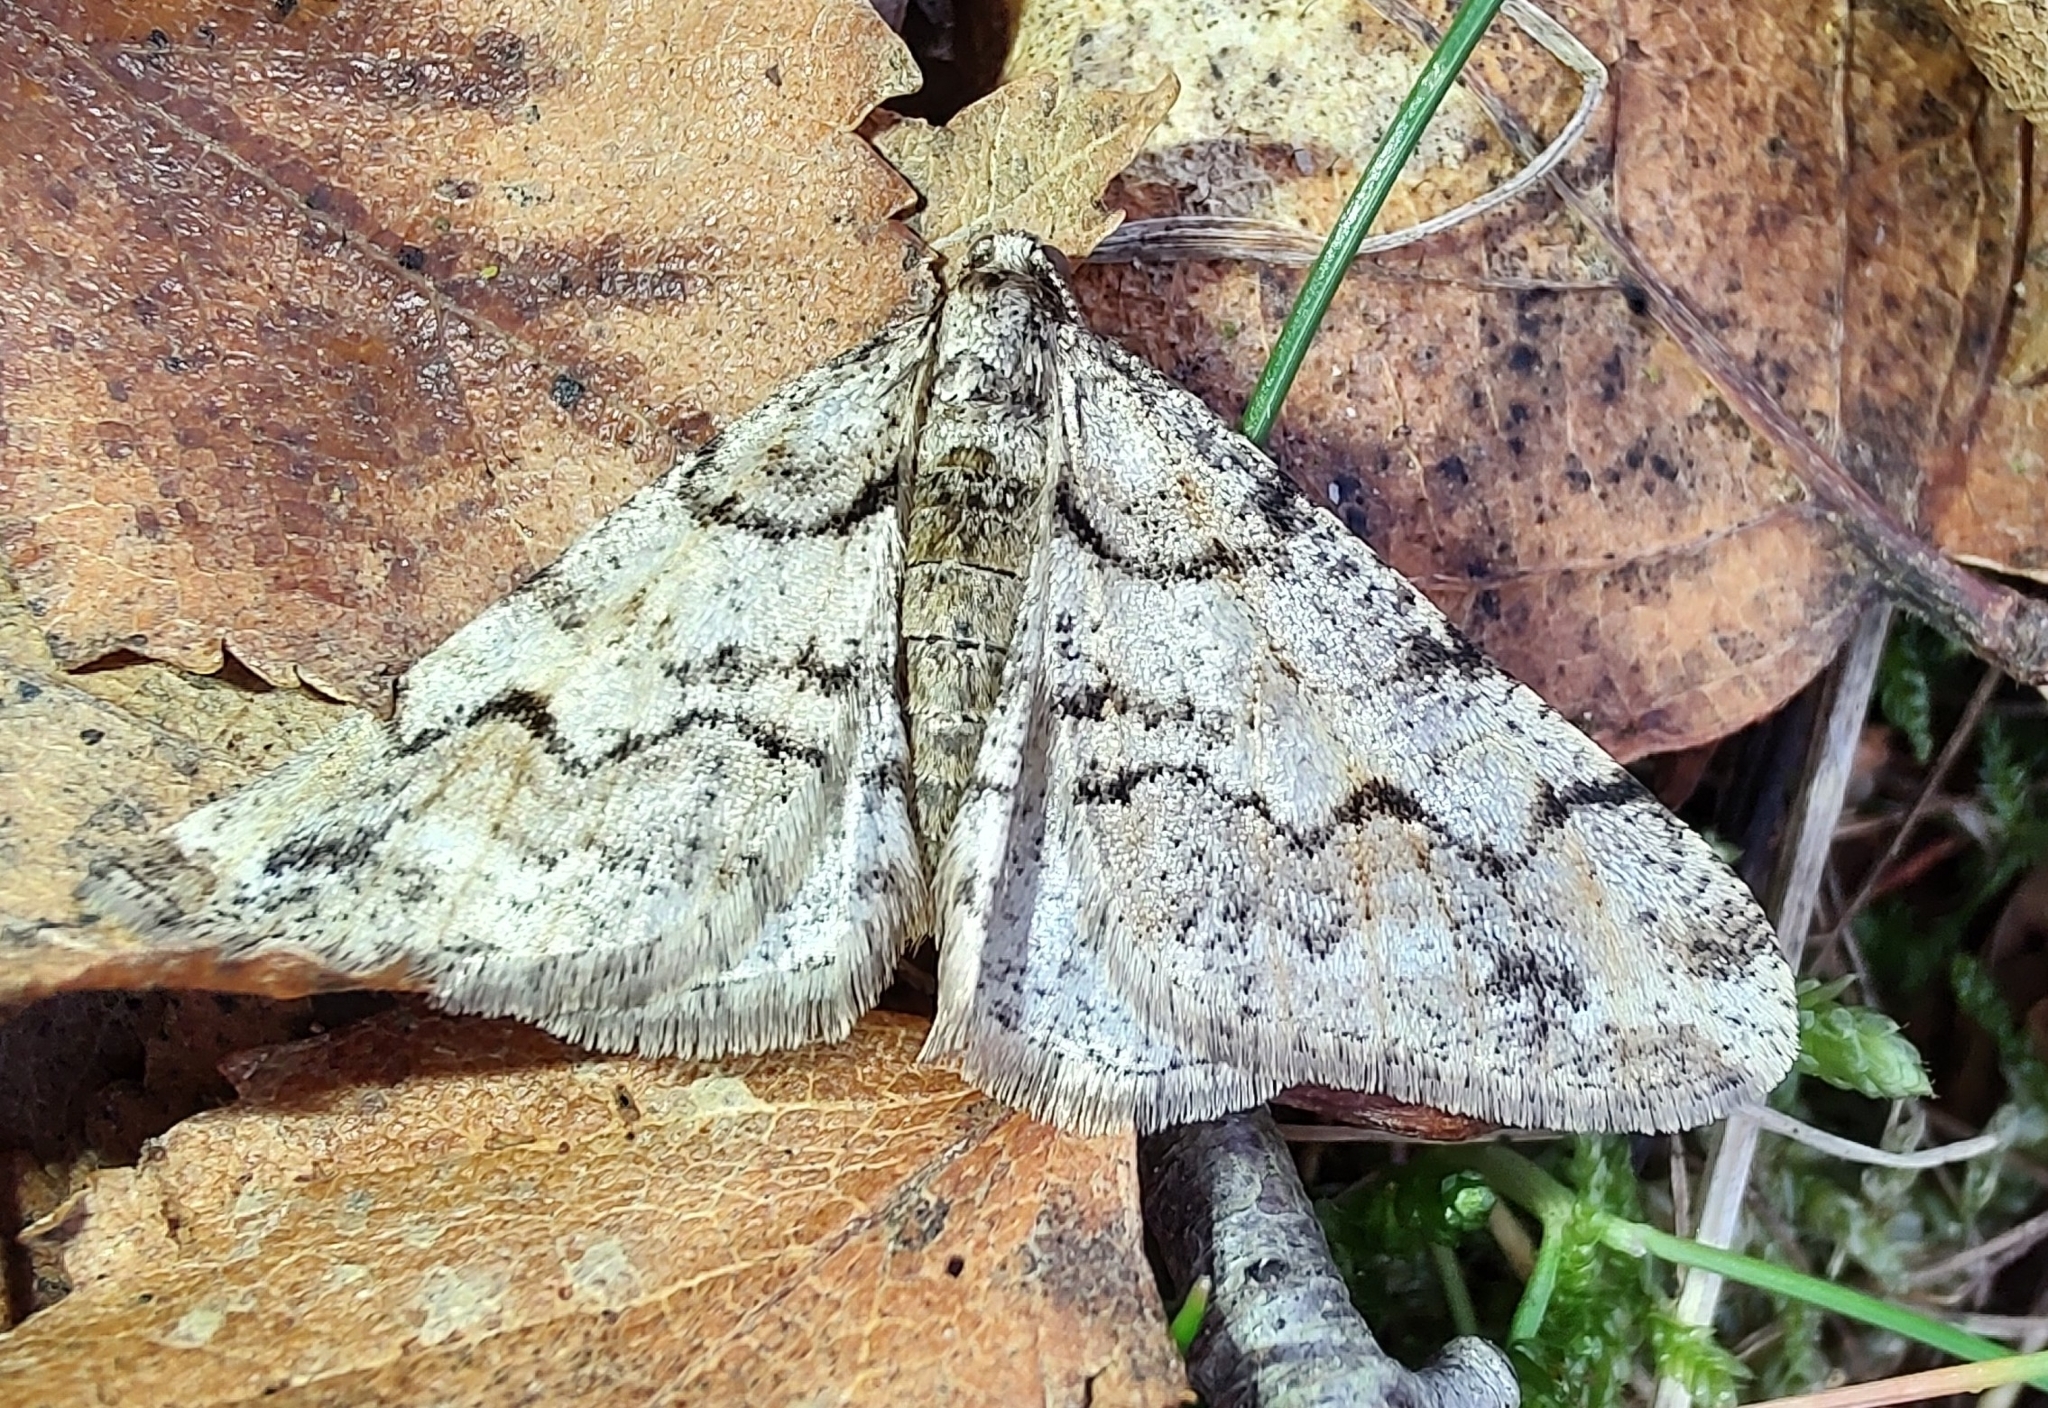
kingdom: Animalia
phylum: Arthropoda
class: Insecta
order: Lepidoptera
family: Geometridae
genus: Agriopis
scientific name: Agriopis leucophaearia
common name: Spring usher
